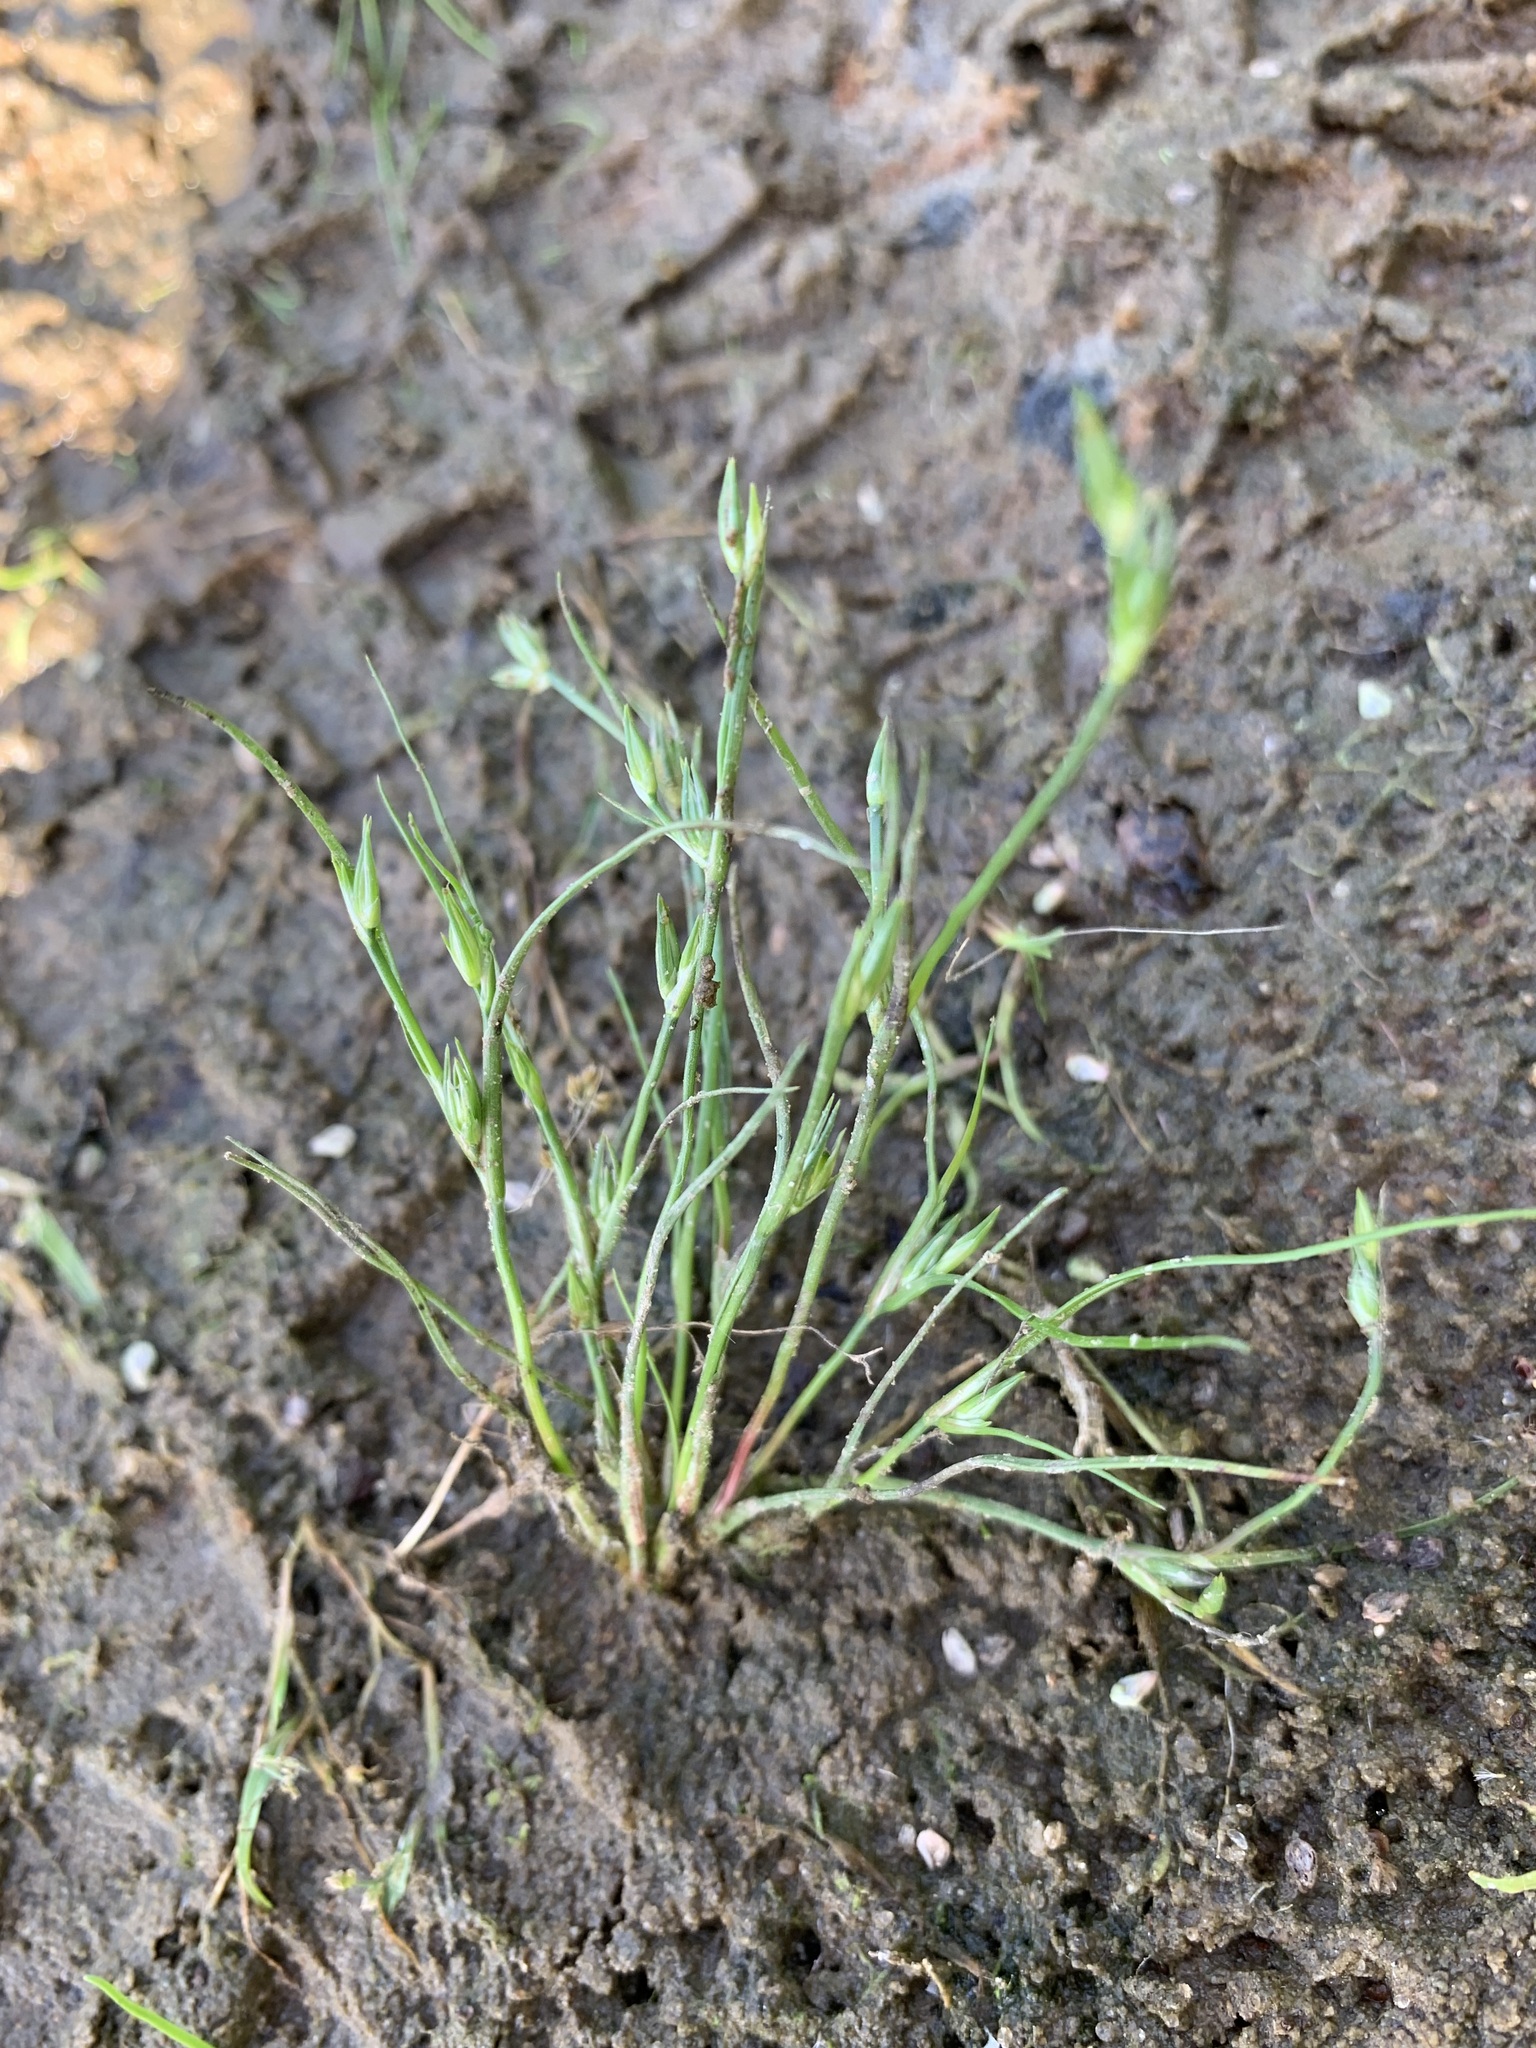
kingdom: Plantae
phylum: Tracheophyta
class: Liliopsida
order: Poales
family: Juncaceae
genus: Juncus
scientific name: Juncus bufonius
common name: Toad rush
